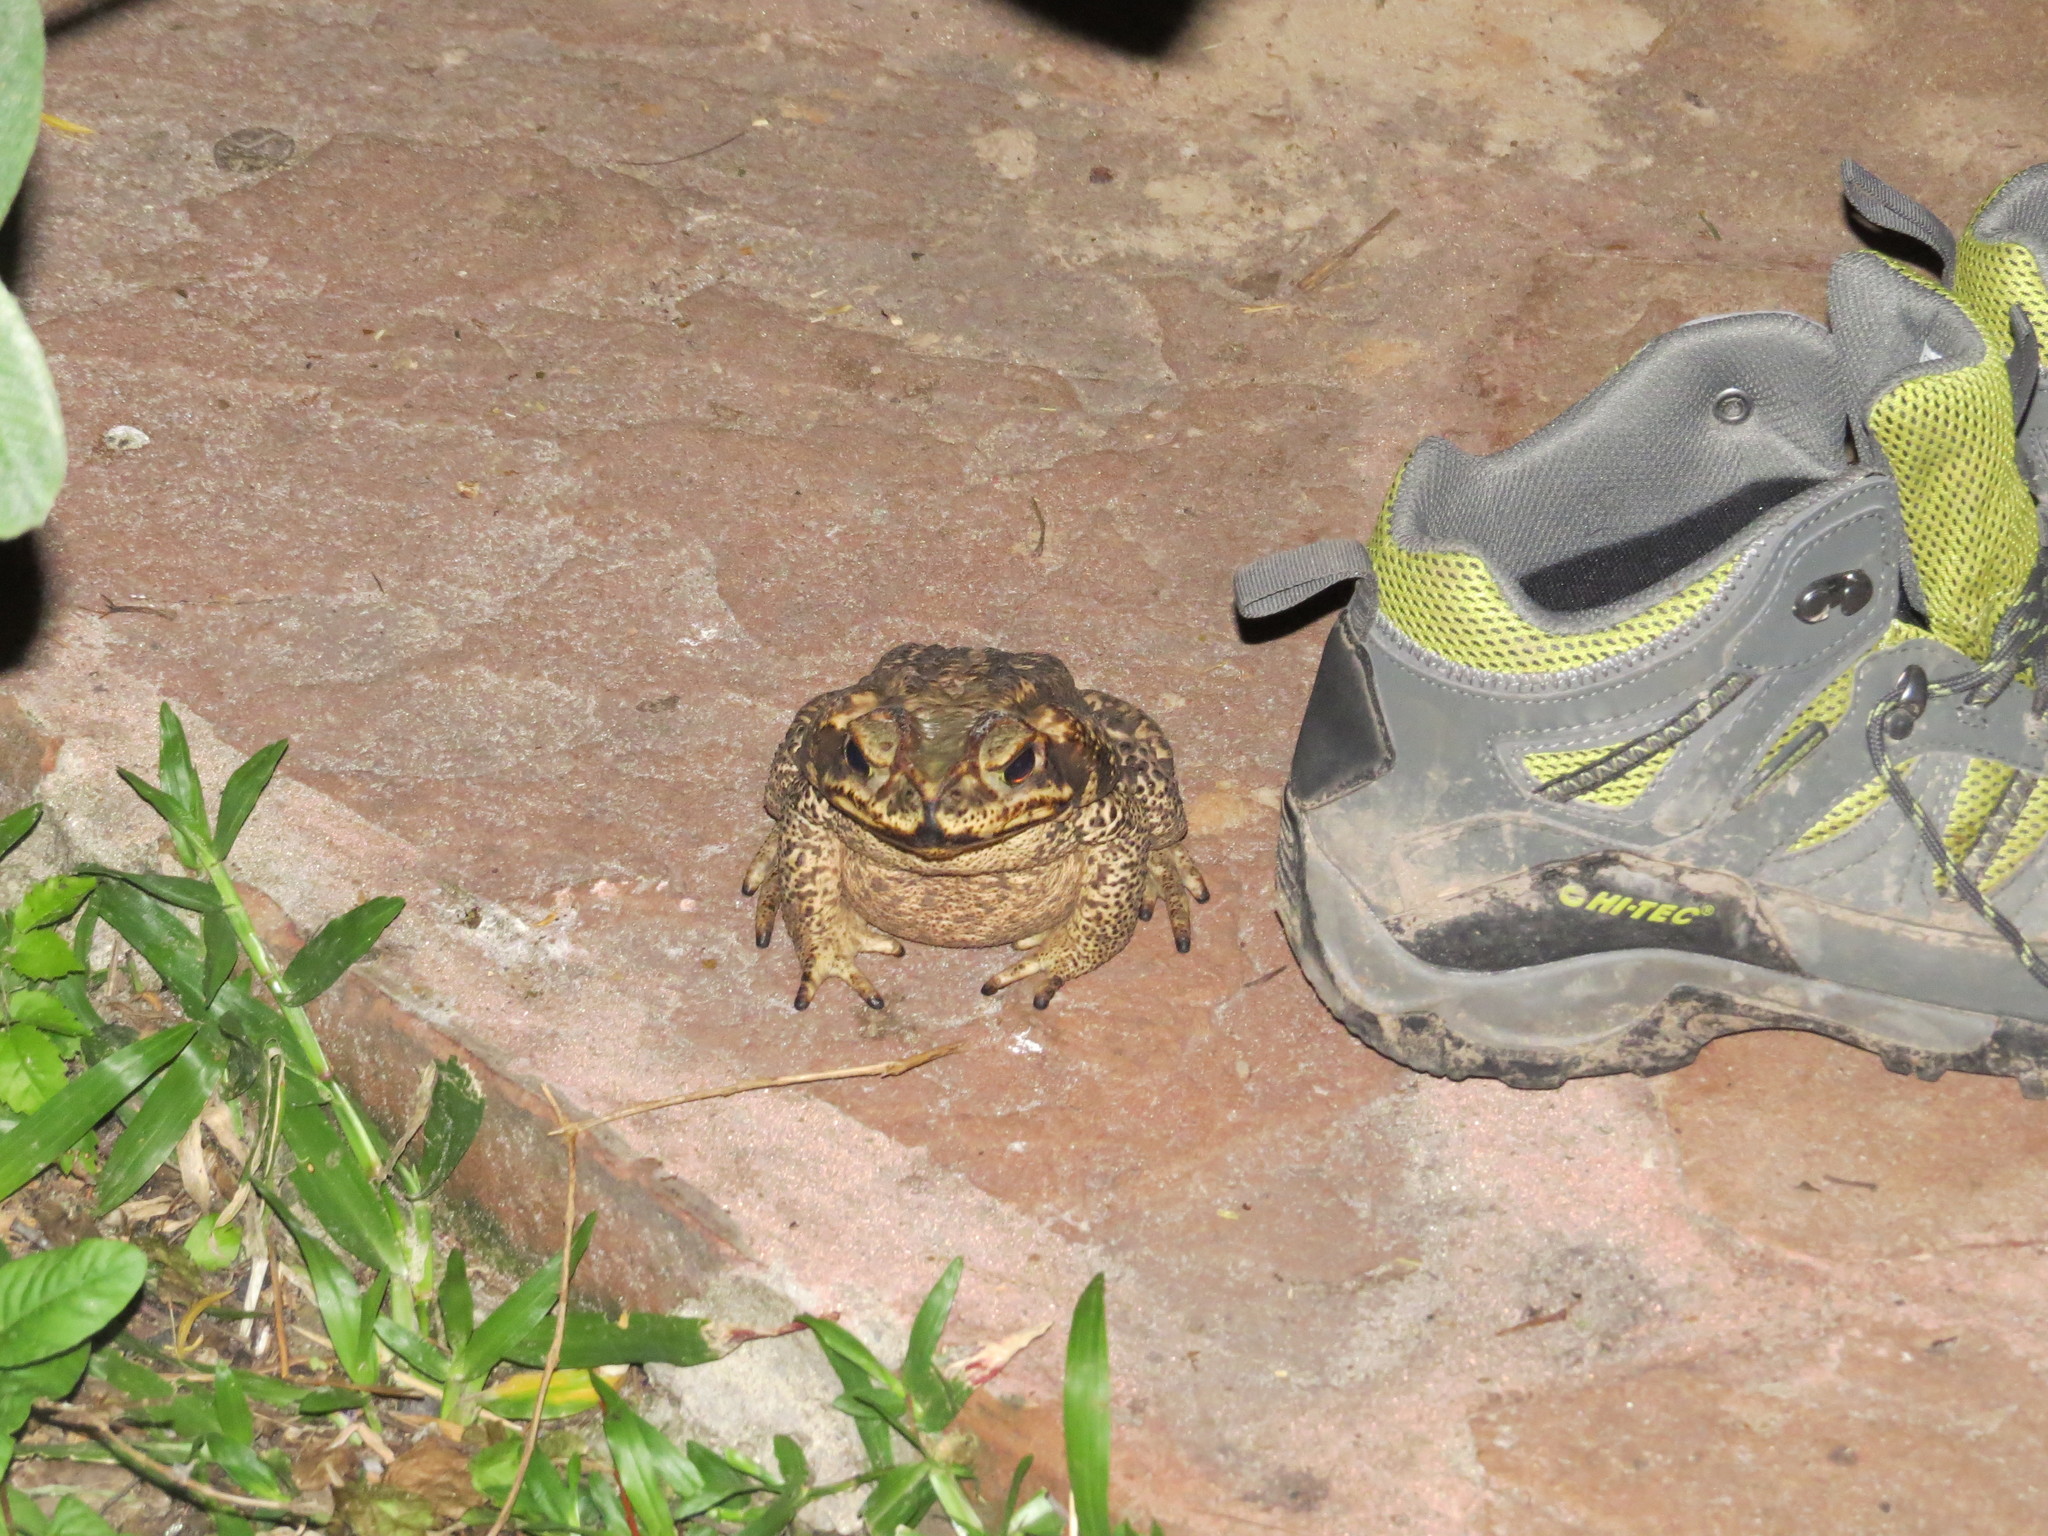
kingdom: Animalia
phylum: Chordata
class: Amphibia
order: Anura
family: Bufonidae
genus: Rhinella
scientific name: Rhinella diptycha
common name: Cope's toad
